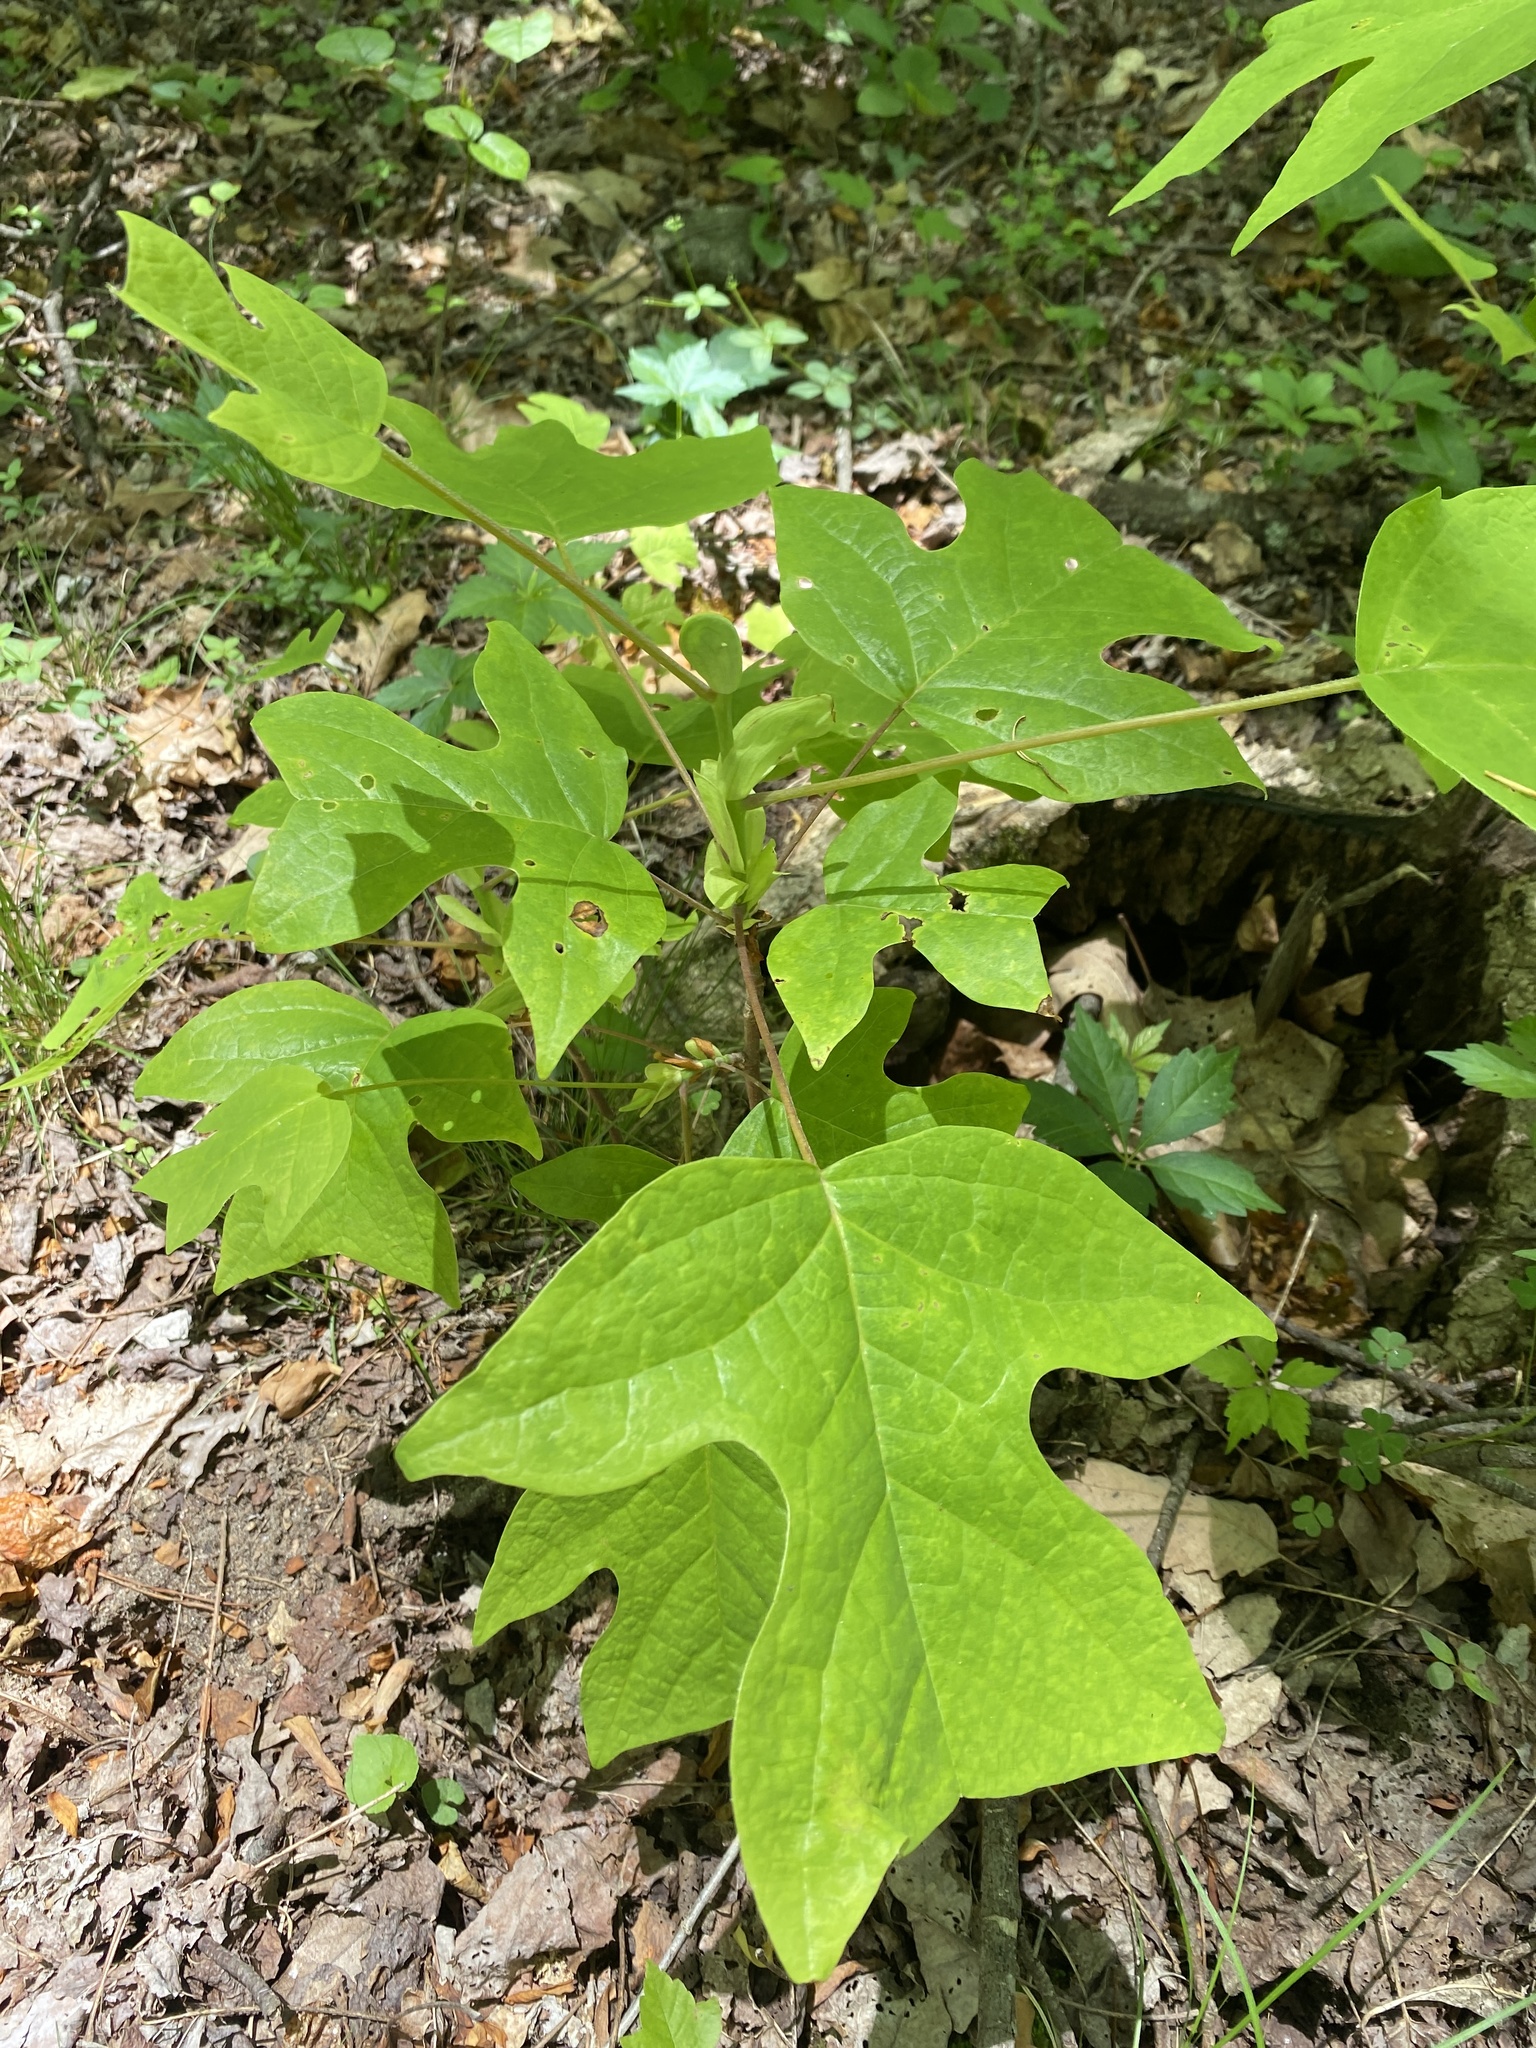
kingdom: Plantae
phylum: Tracheophyta
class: Magnoliopsida
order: Magnoliales
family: Magnoliaceae
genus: Liriodendron
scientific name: Liriodendron tulipifera
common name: Tulip tree
